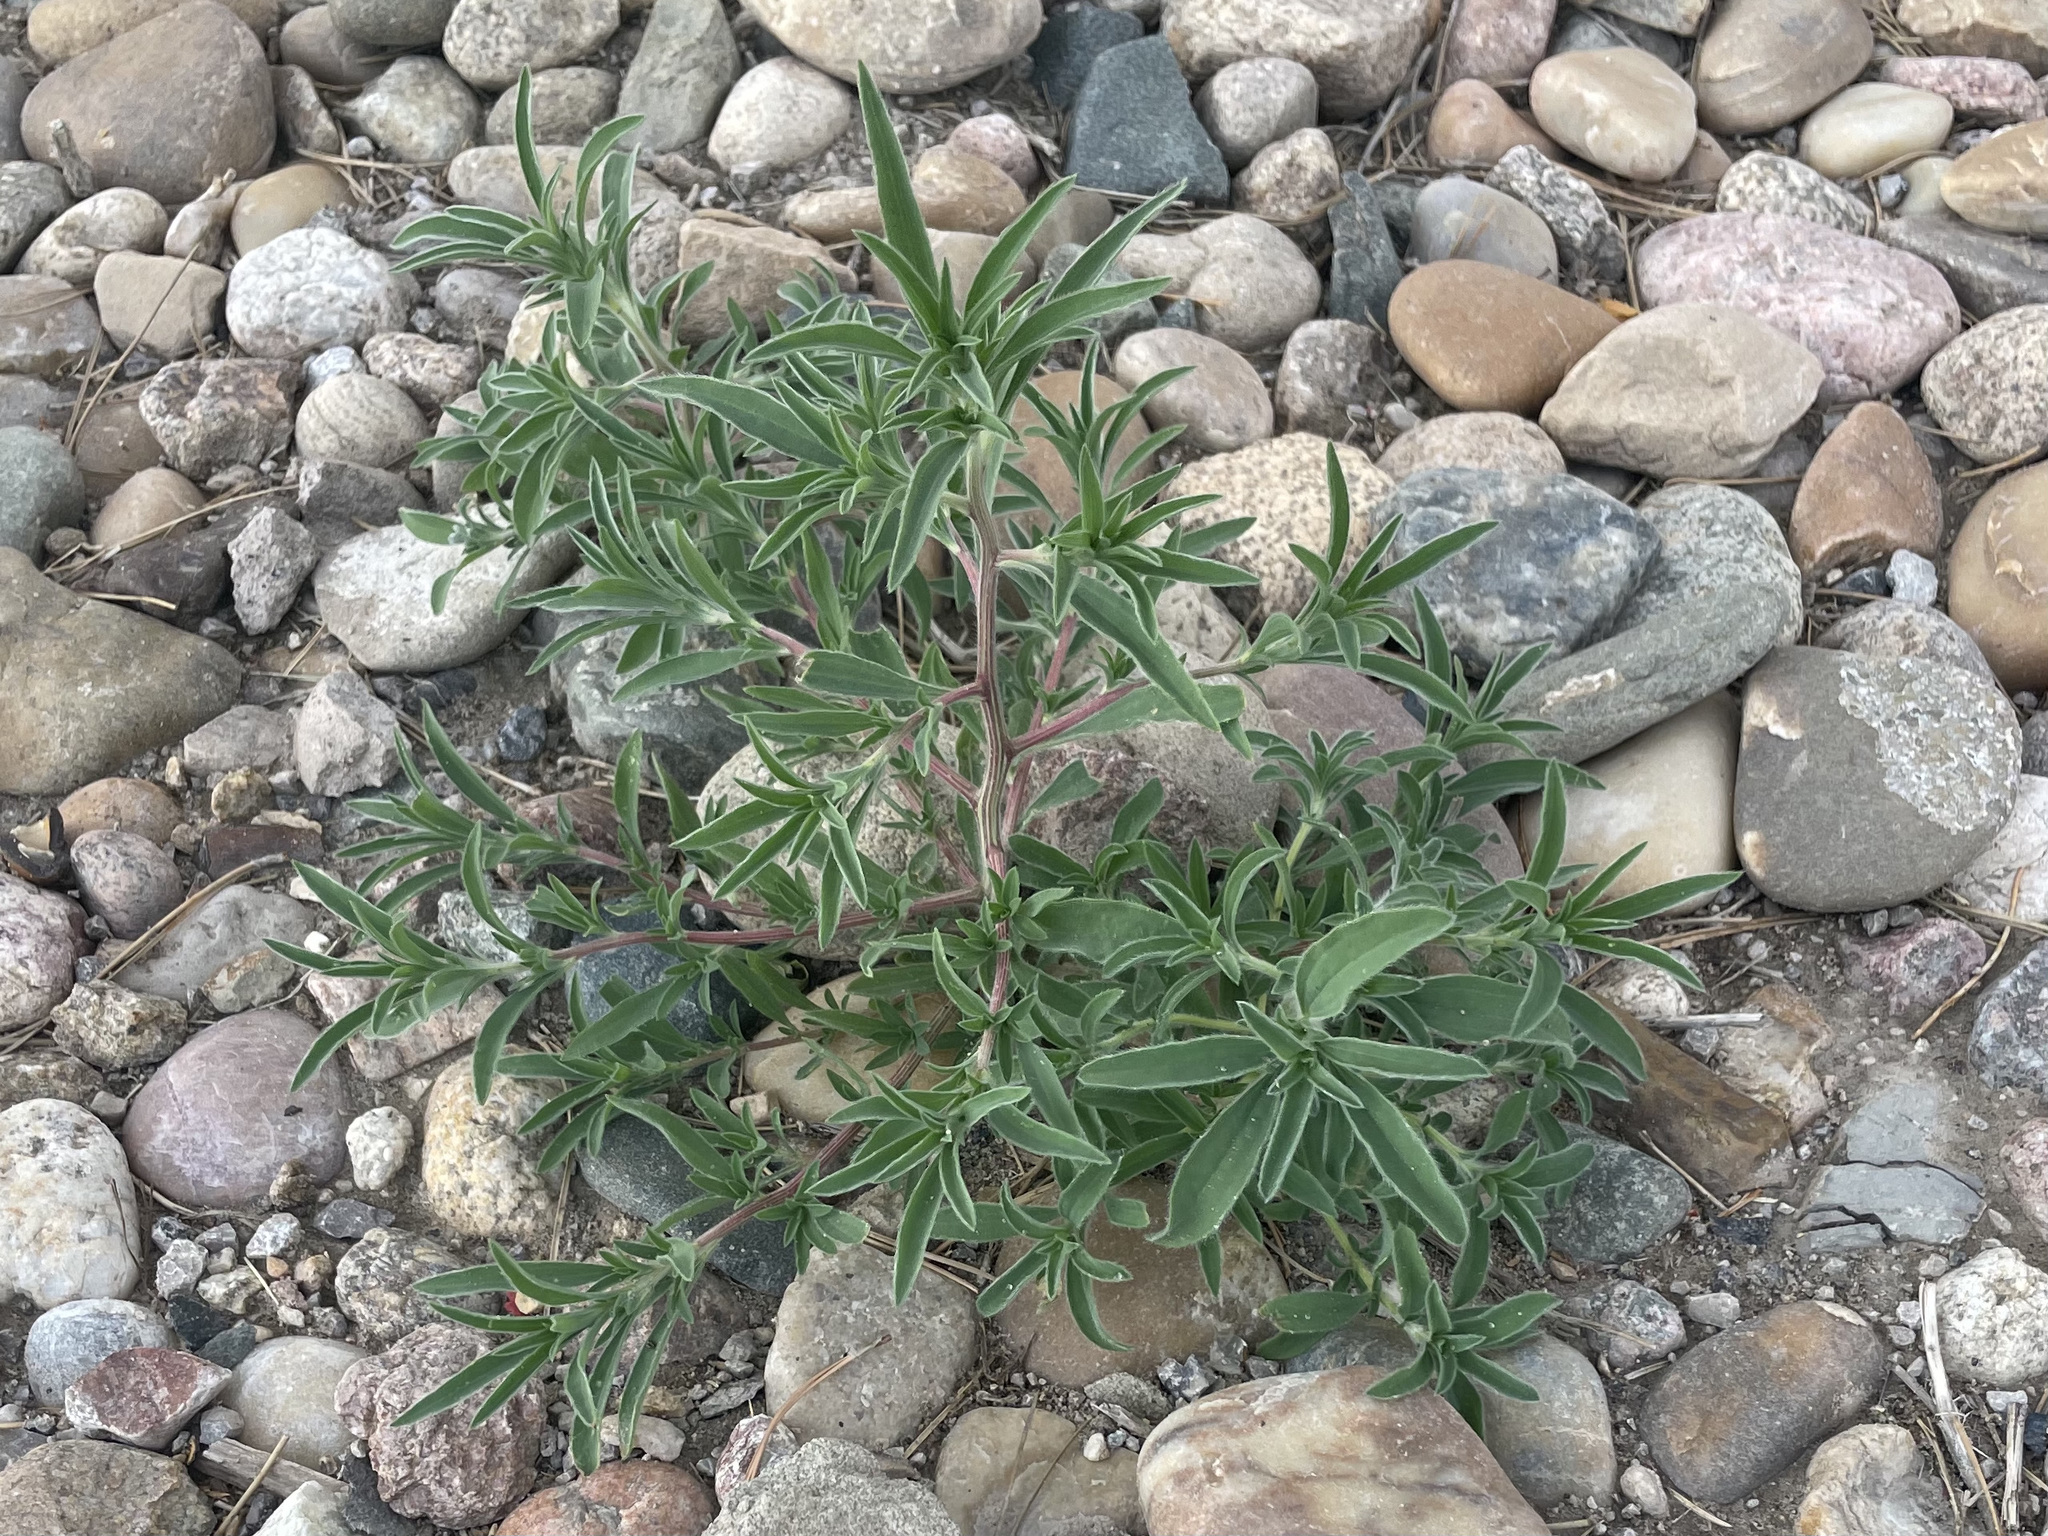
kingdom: Plantae
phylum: Tracheophyta
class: Magnoliopsida
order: Caryophyllales
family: Amaranthaceae
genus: Bassia
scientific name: Bassia scoparia
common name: Belvedere
